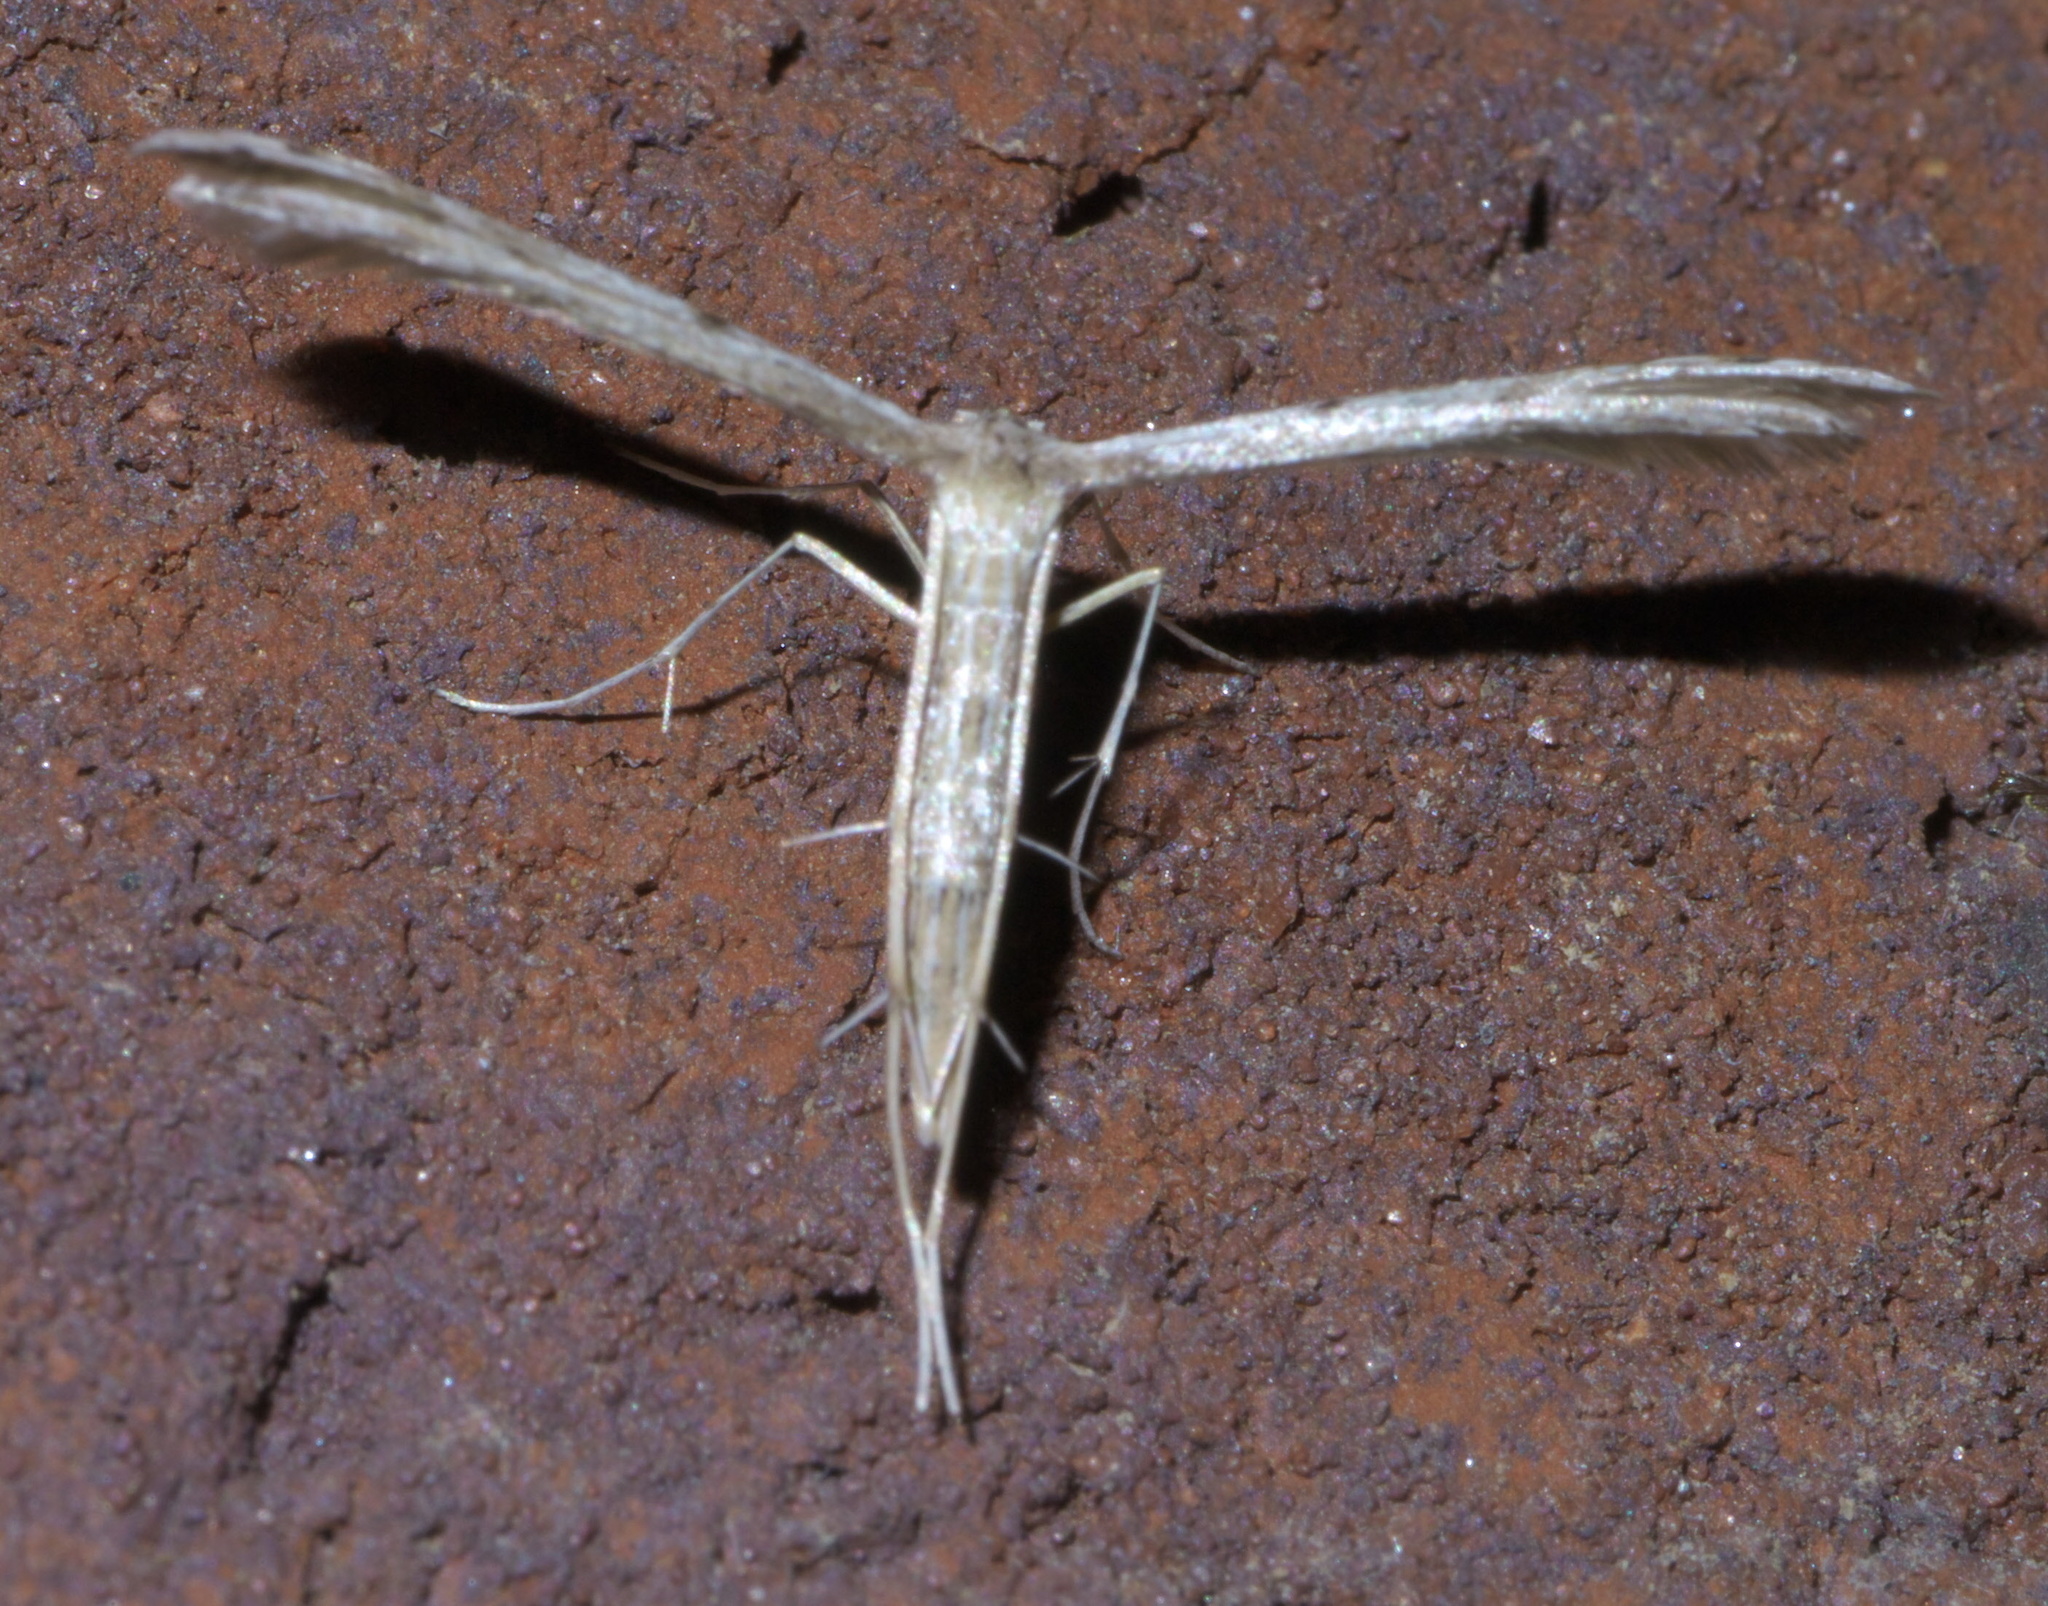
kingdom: Animalia
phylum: Arthropoda
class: Insecta
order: Lepidoptera
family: Pterophoridae
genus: Pselnophorus
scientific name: Pselnophorus belfragei
